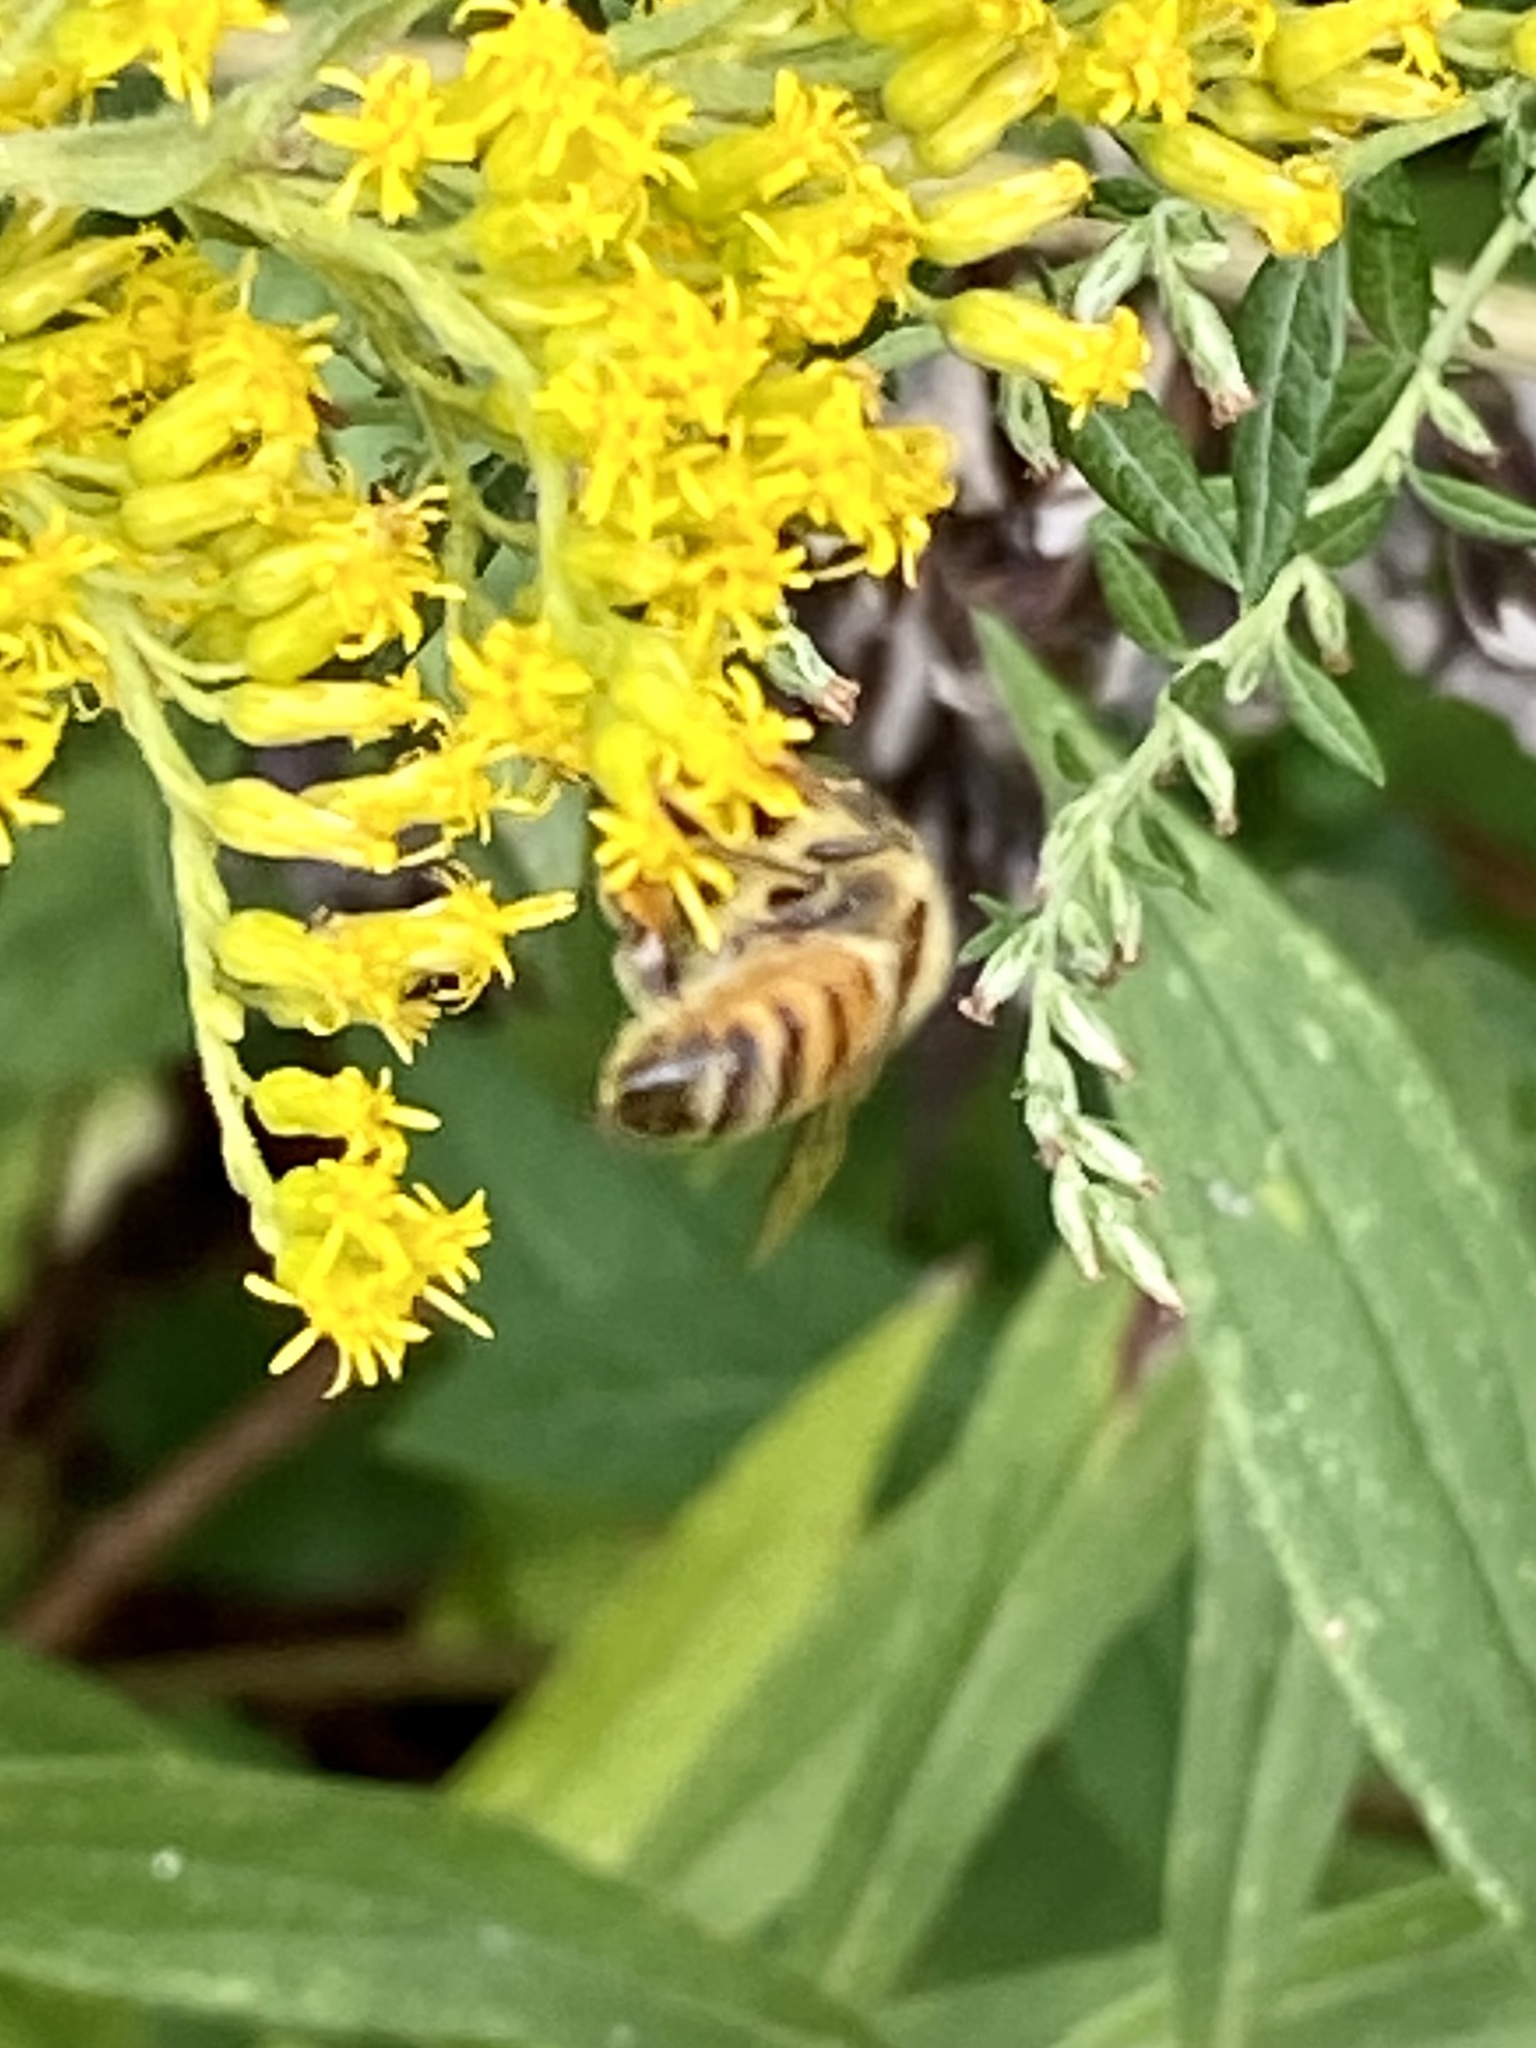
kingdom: Animalia
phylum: Arthropoda
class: Insecta
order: Hymenoptera
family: Apidae
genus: Apis
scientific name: Apis mellifera
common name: Honey bee
